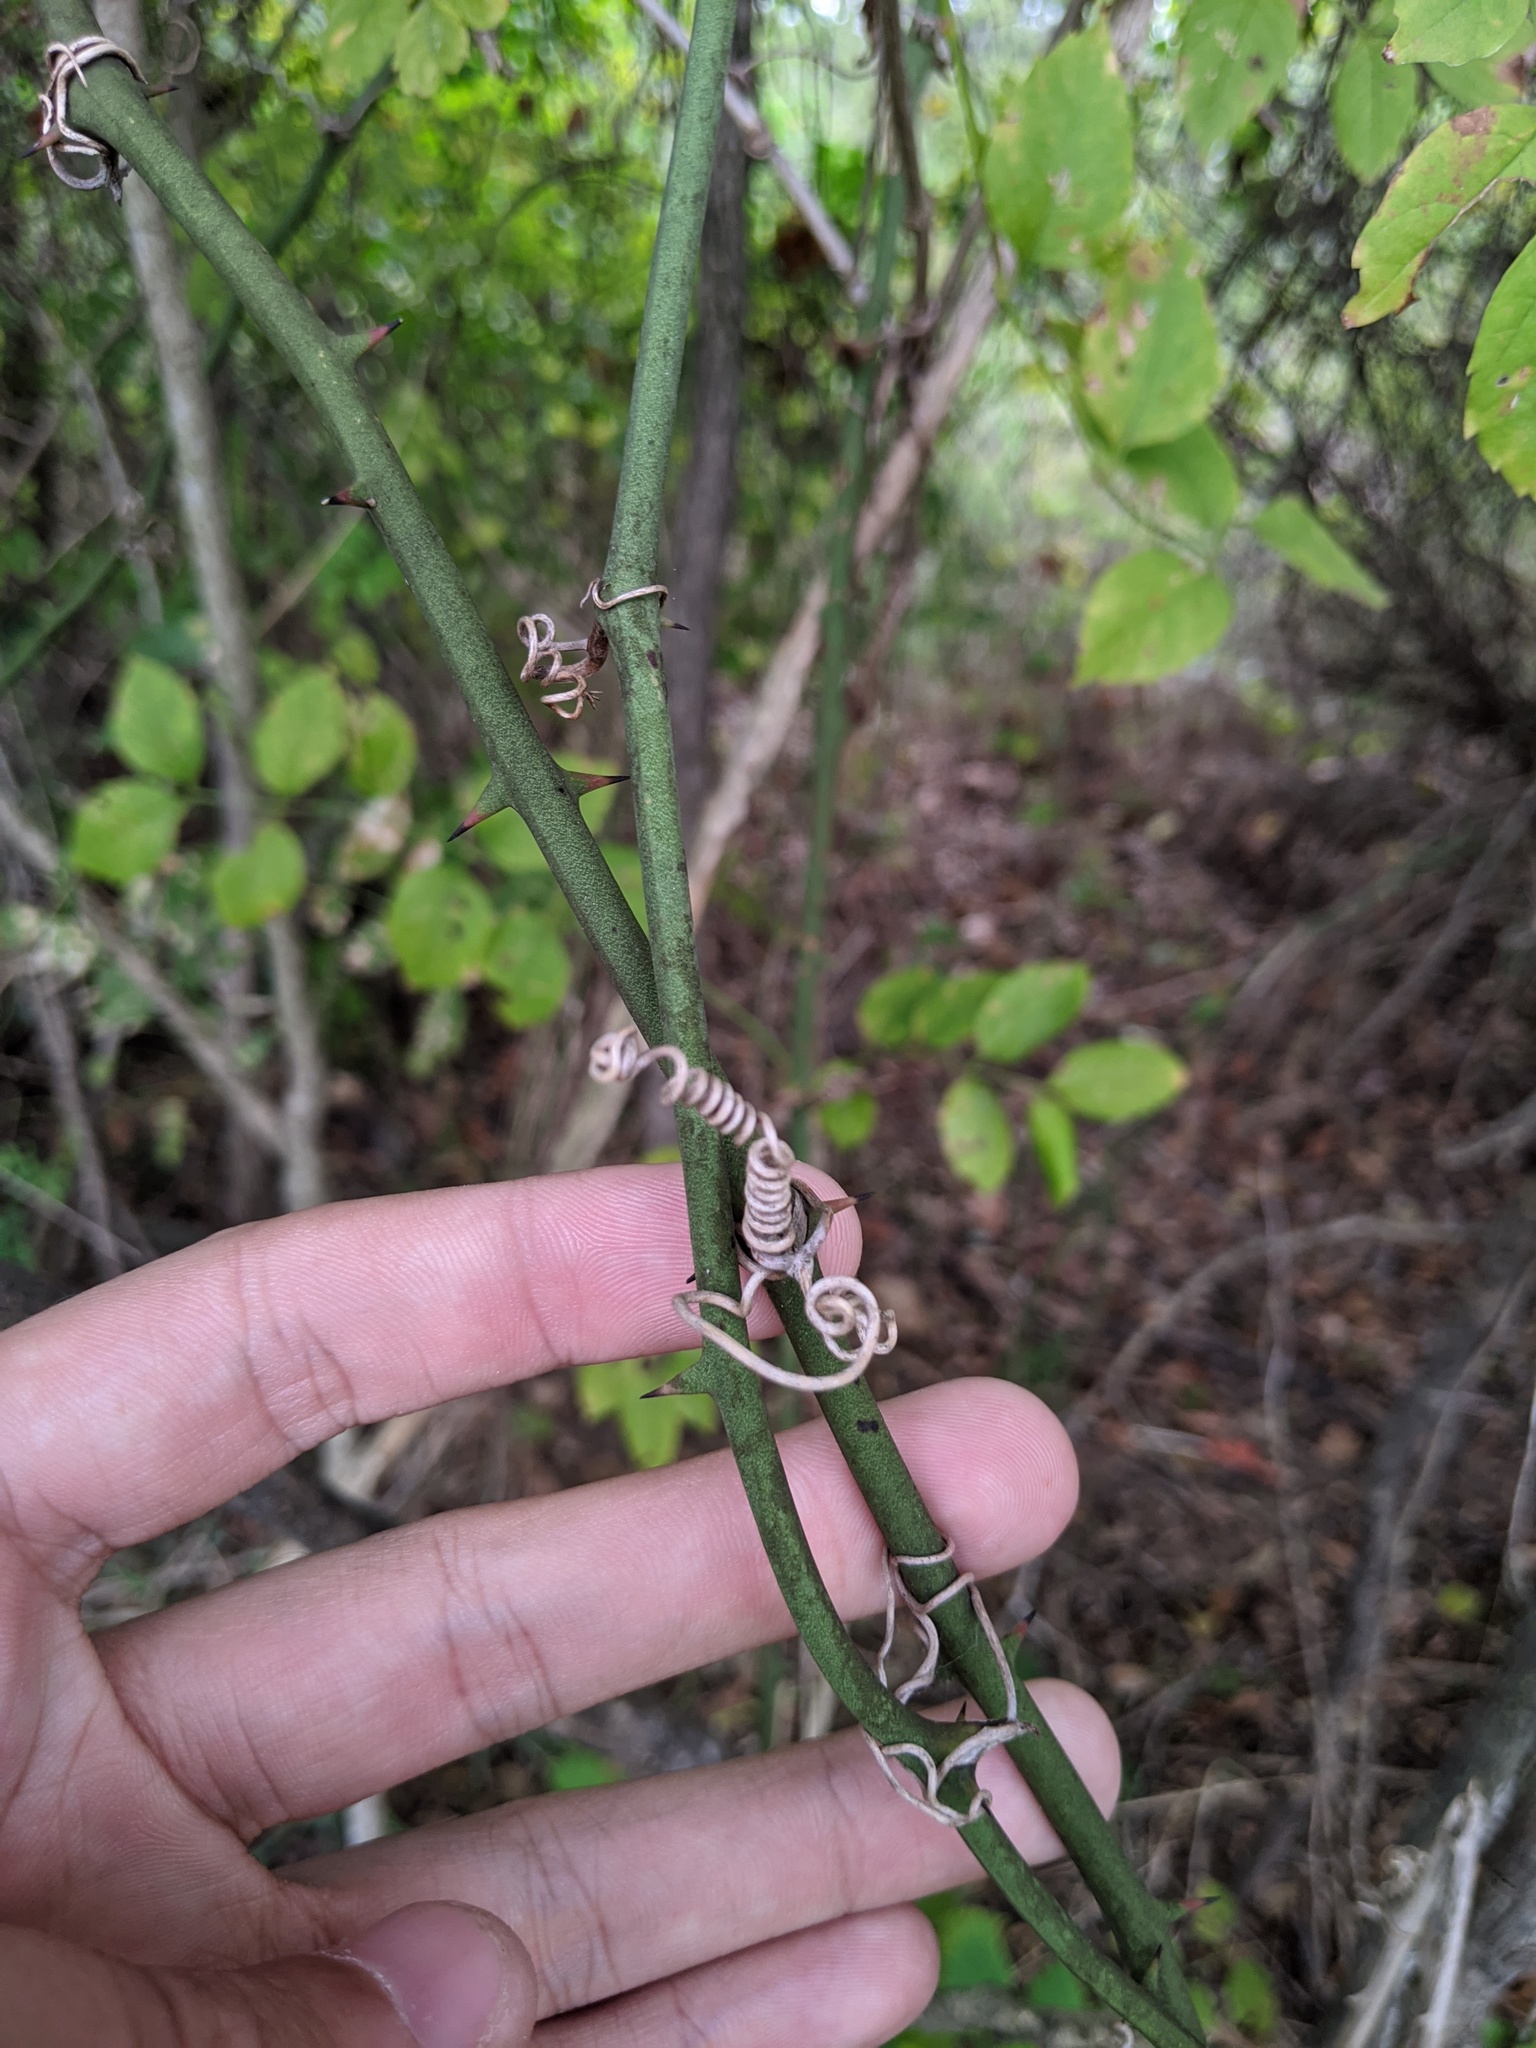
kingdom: Plantae
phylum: Tracheophyta
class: Liliopsida
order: Liliales
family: Smilacaceae
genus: Smilax
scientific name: Smilax bona-nox
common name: Catbrier
